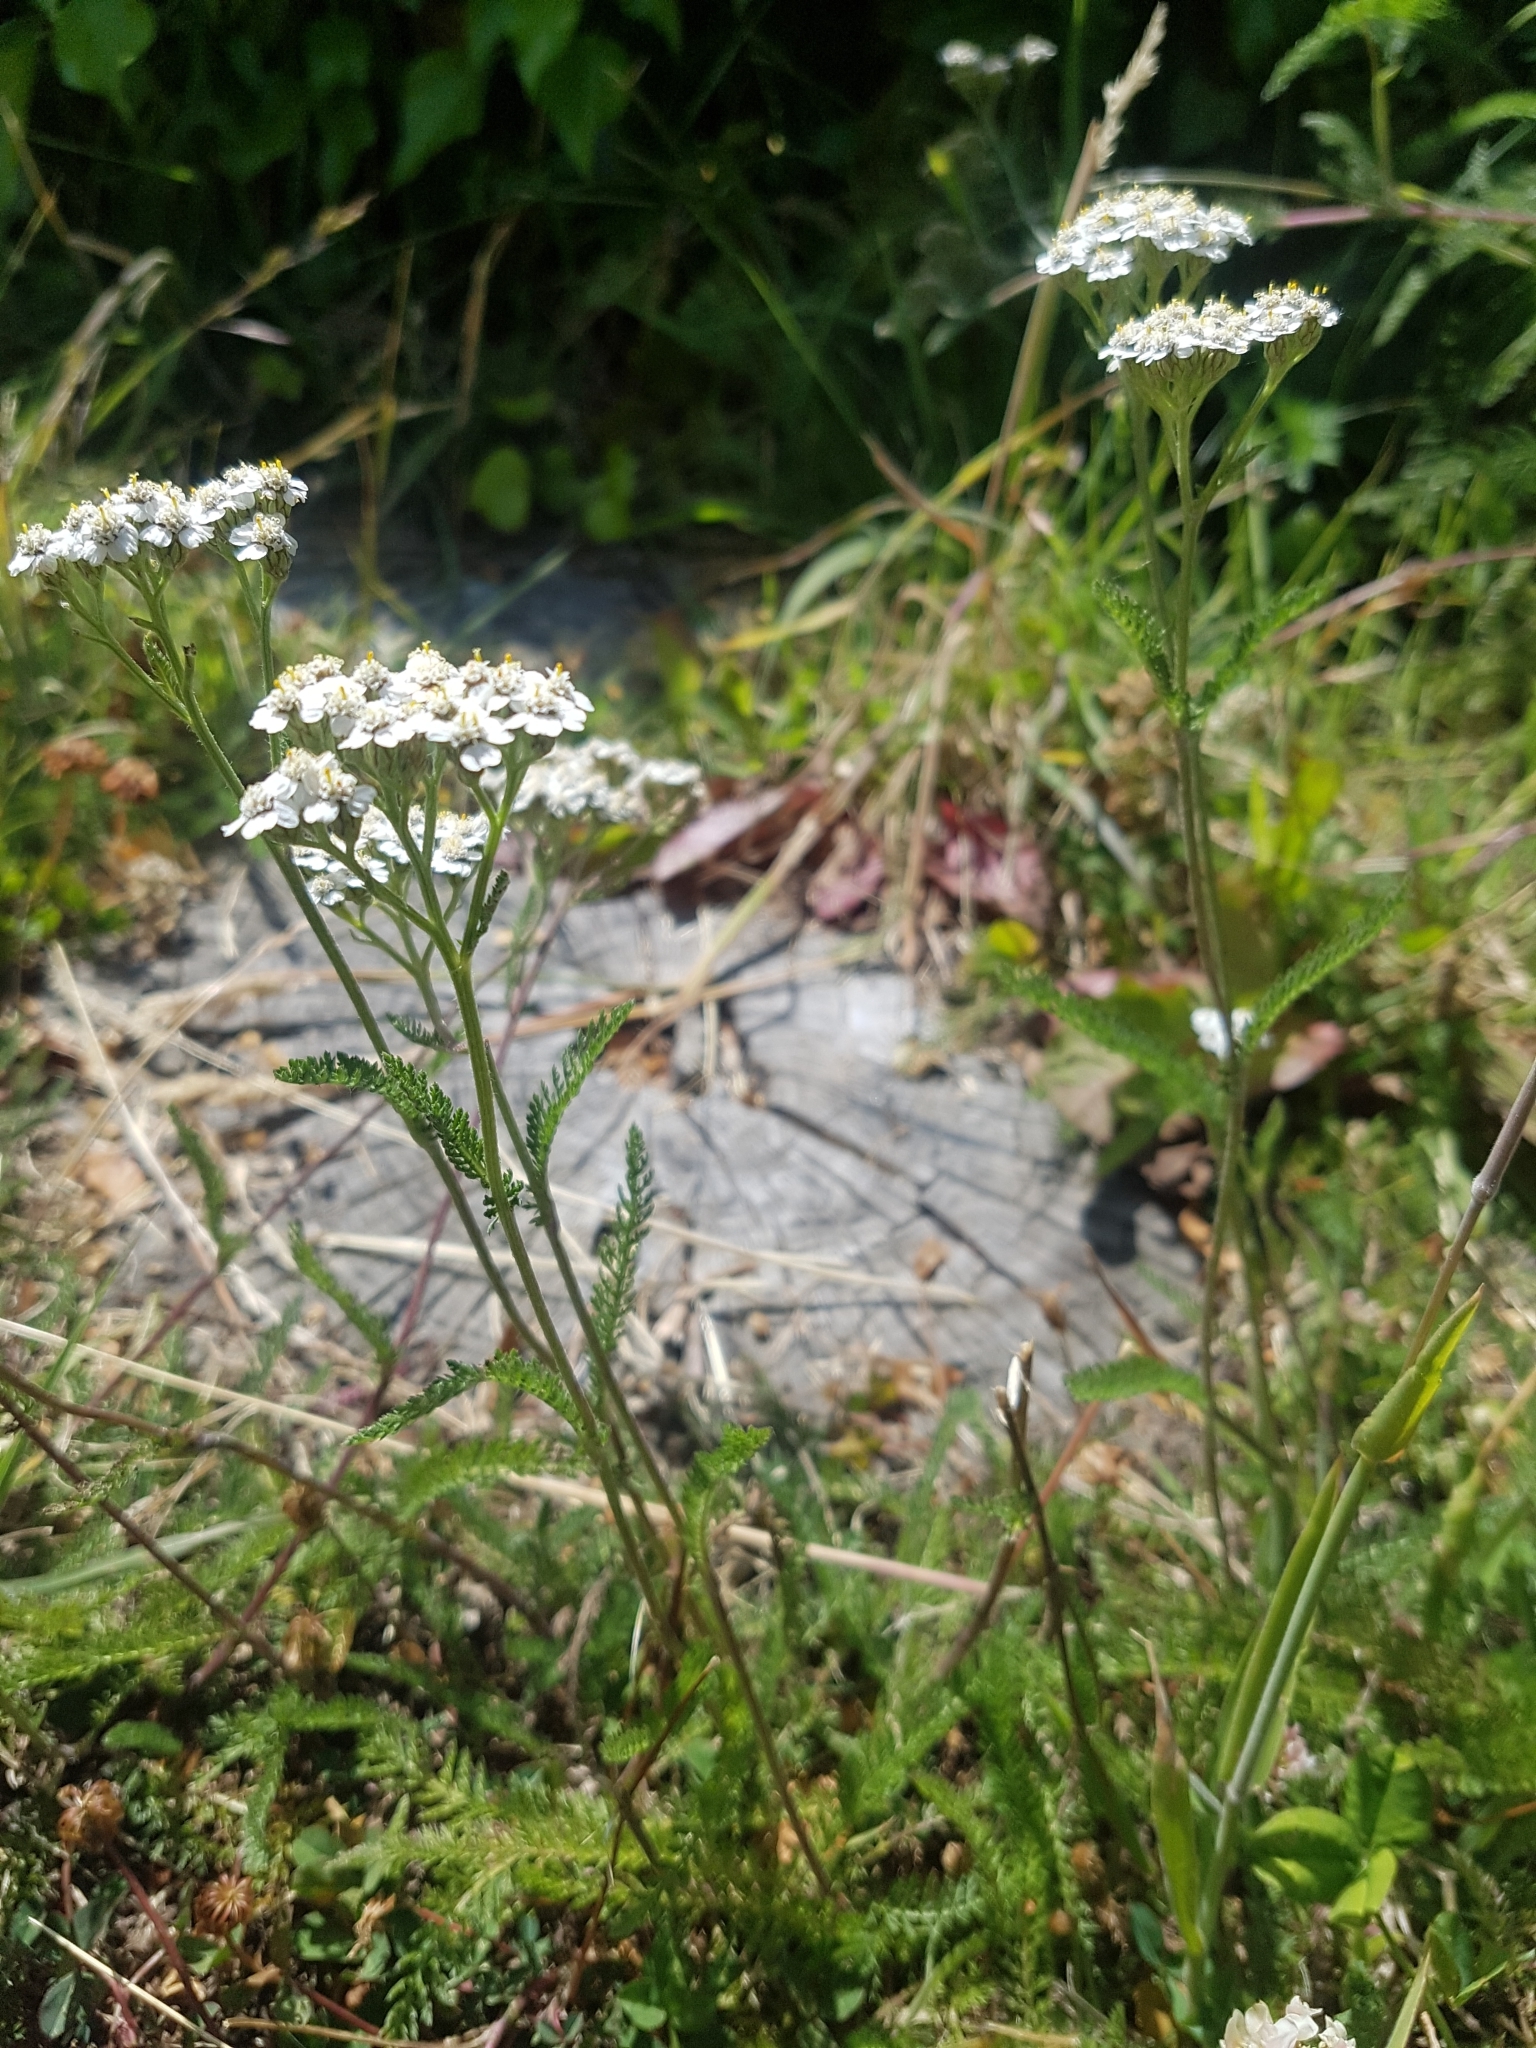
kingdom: Plantae
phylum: Tracheophyta
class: Magnoliopsida
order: Asterales
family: Asteraceae
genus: Achillea
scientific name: Achillea millefolium
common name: Yarrow
